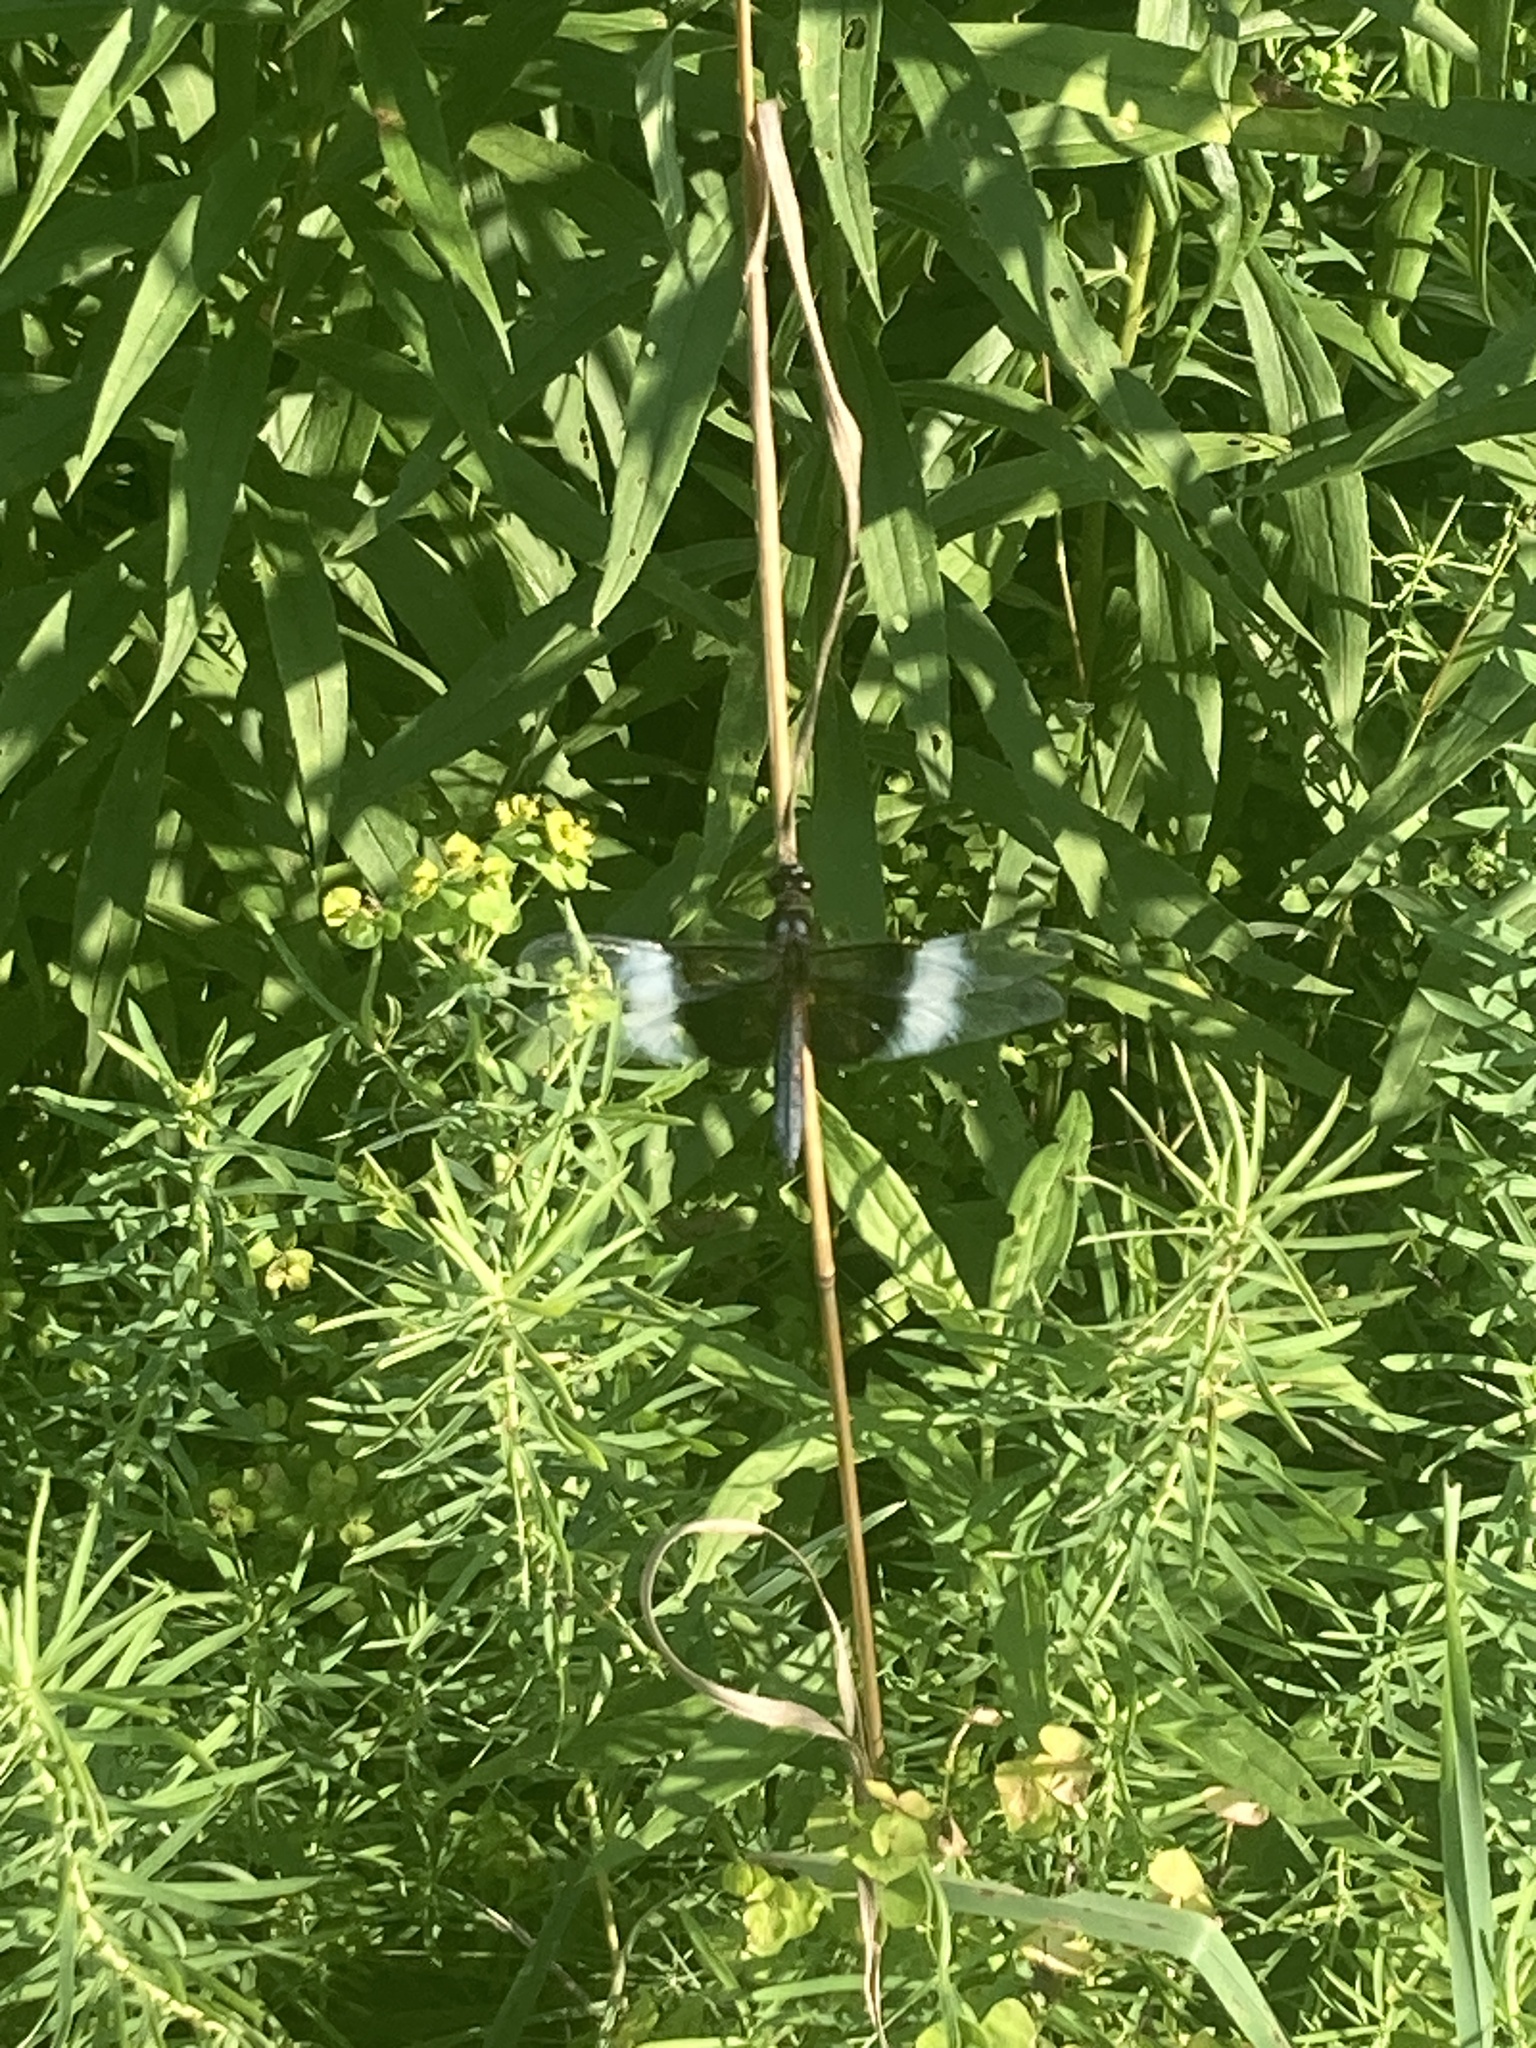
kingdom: Animalia
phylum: Arthropoda
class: Insecta
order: Odonata
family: Libellulidae
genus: Libellula
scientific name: Libellula luctuosa
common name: Widow skimmer
